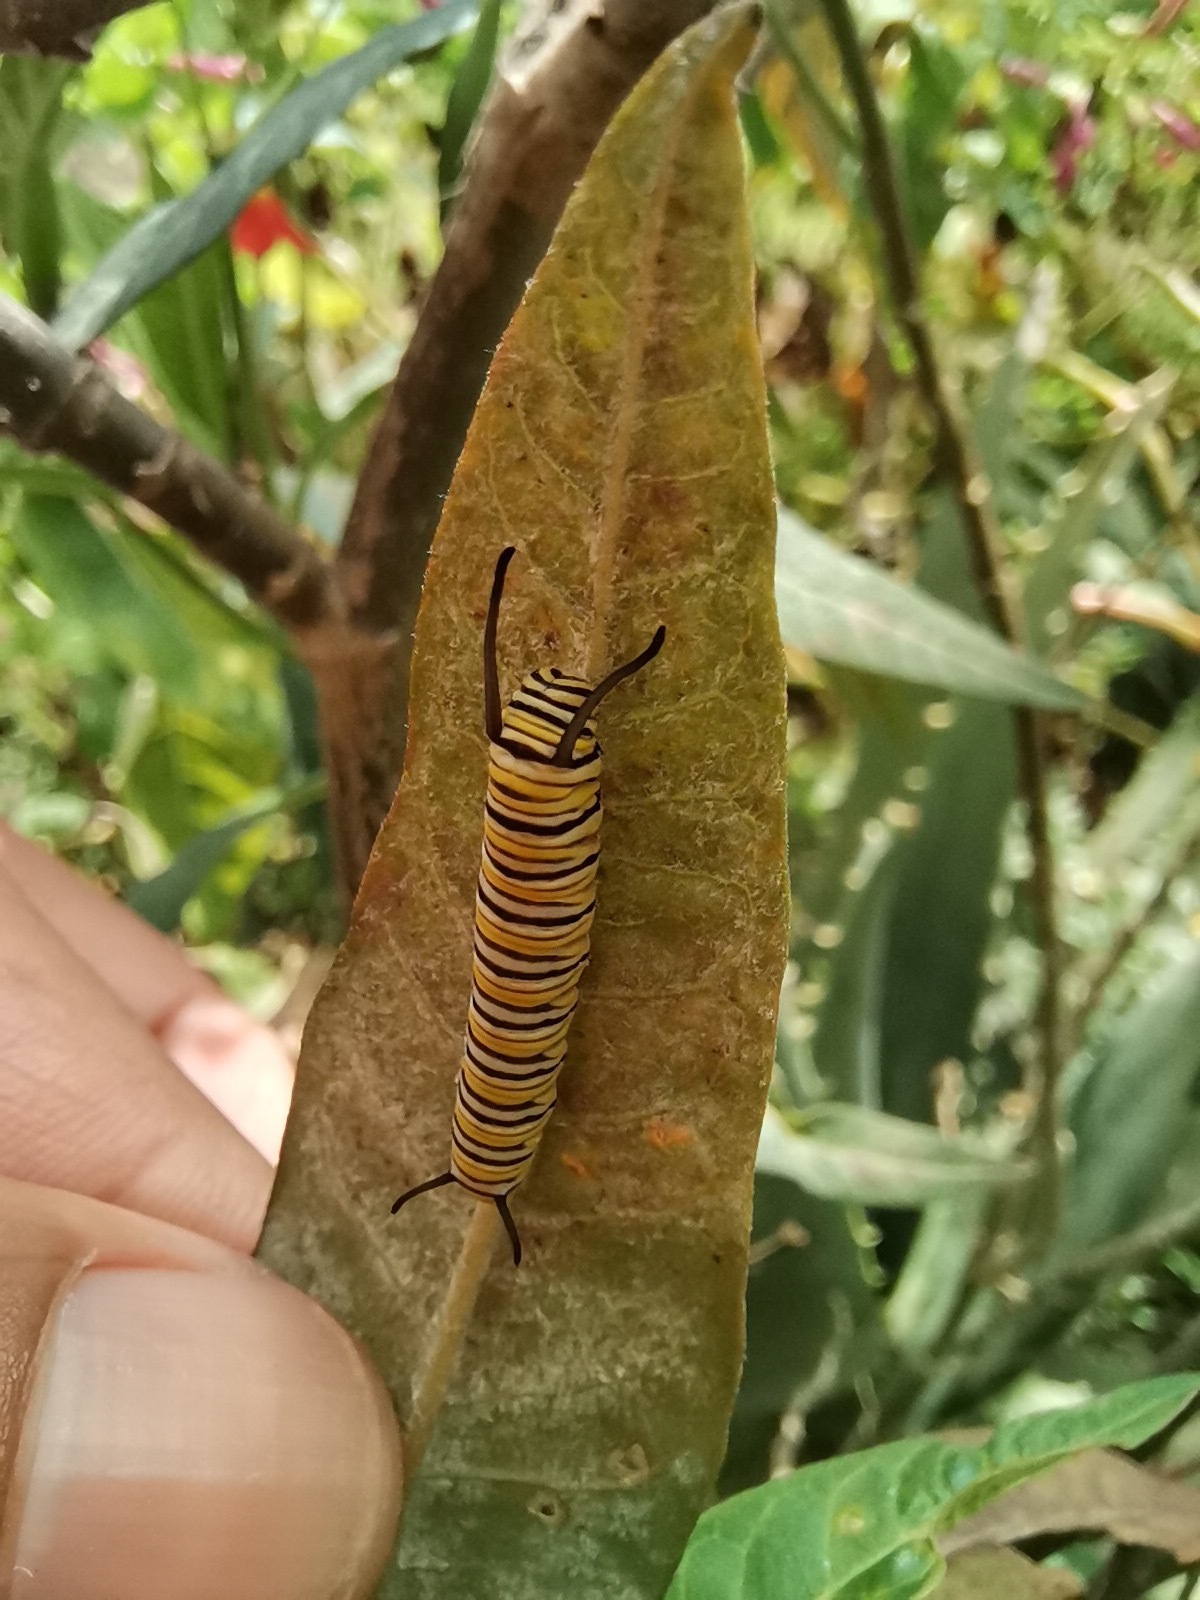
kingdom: Animalia
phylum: Arthropoda
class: Insecta
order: Lepidoptera
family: Nymphalidae
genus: Danaus
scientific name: Danaus plexippus
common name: Monarch
